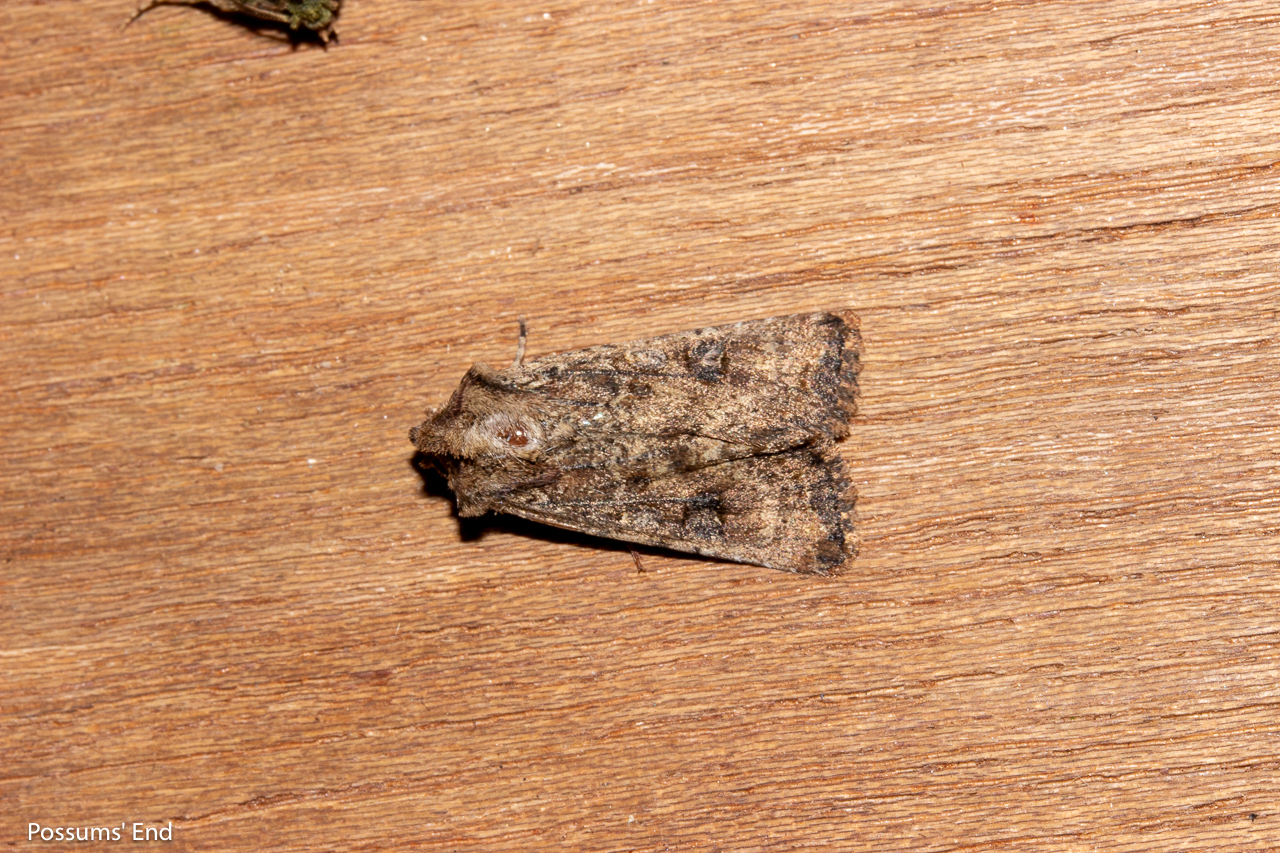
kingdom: Animalia
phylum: Arthropoda
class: Insecta
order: Lepidoptera
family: Noctuidae
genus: Ichneutica
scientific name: Ichneutica morosa
